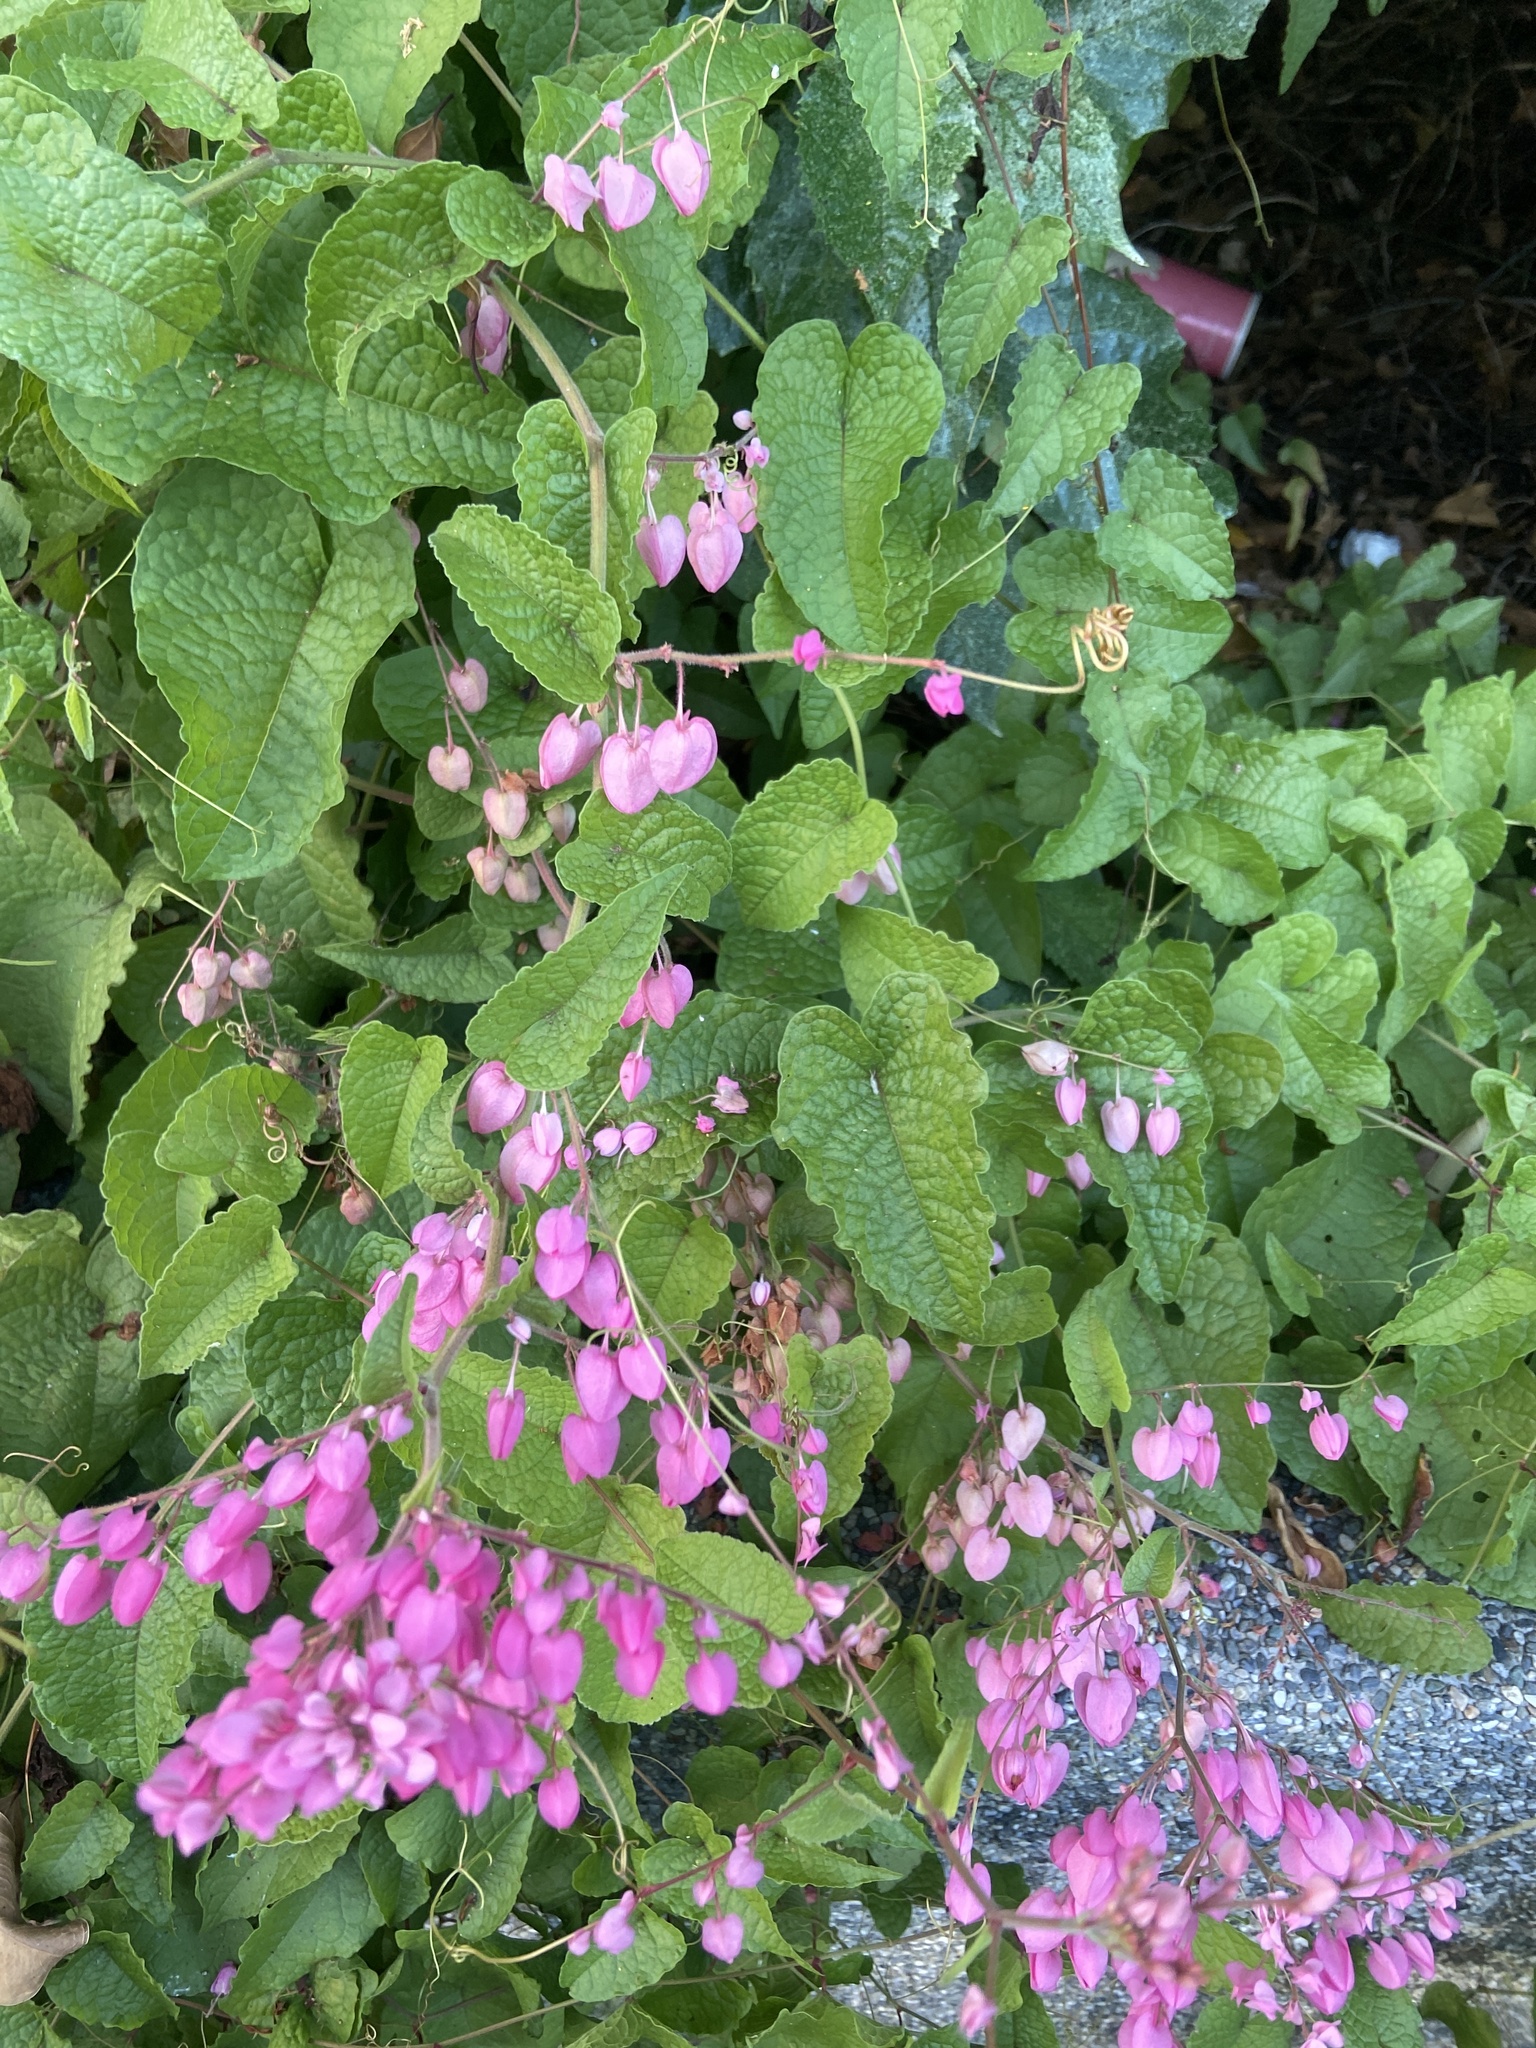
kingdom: Plantae
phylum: Tracheophyta
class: Magnoliopsida
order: Caryophyllales
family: Polygonaceae
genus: Antigonon
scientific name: Antigonon leptopus
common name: Coral vine
